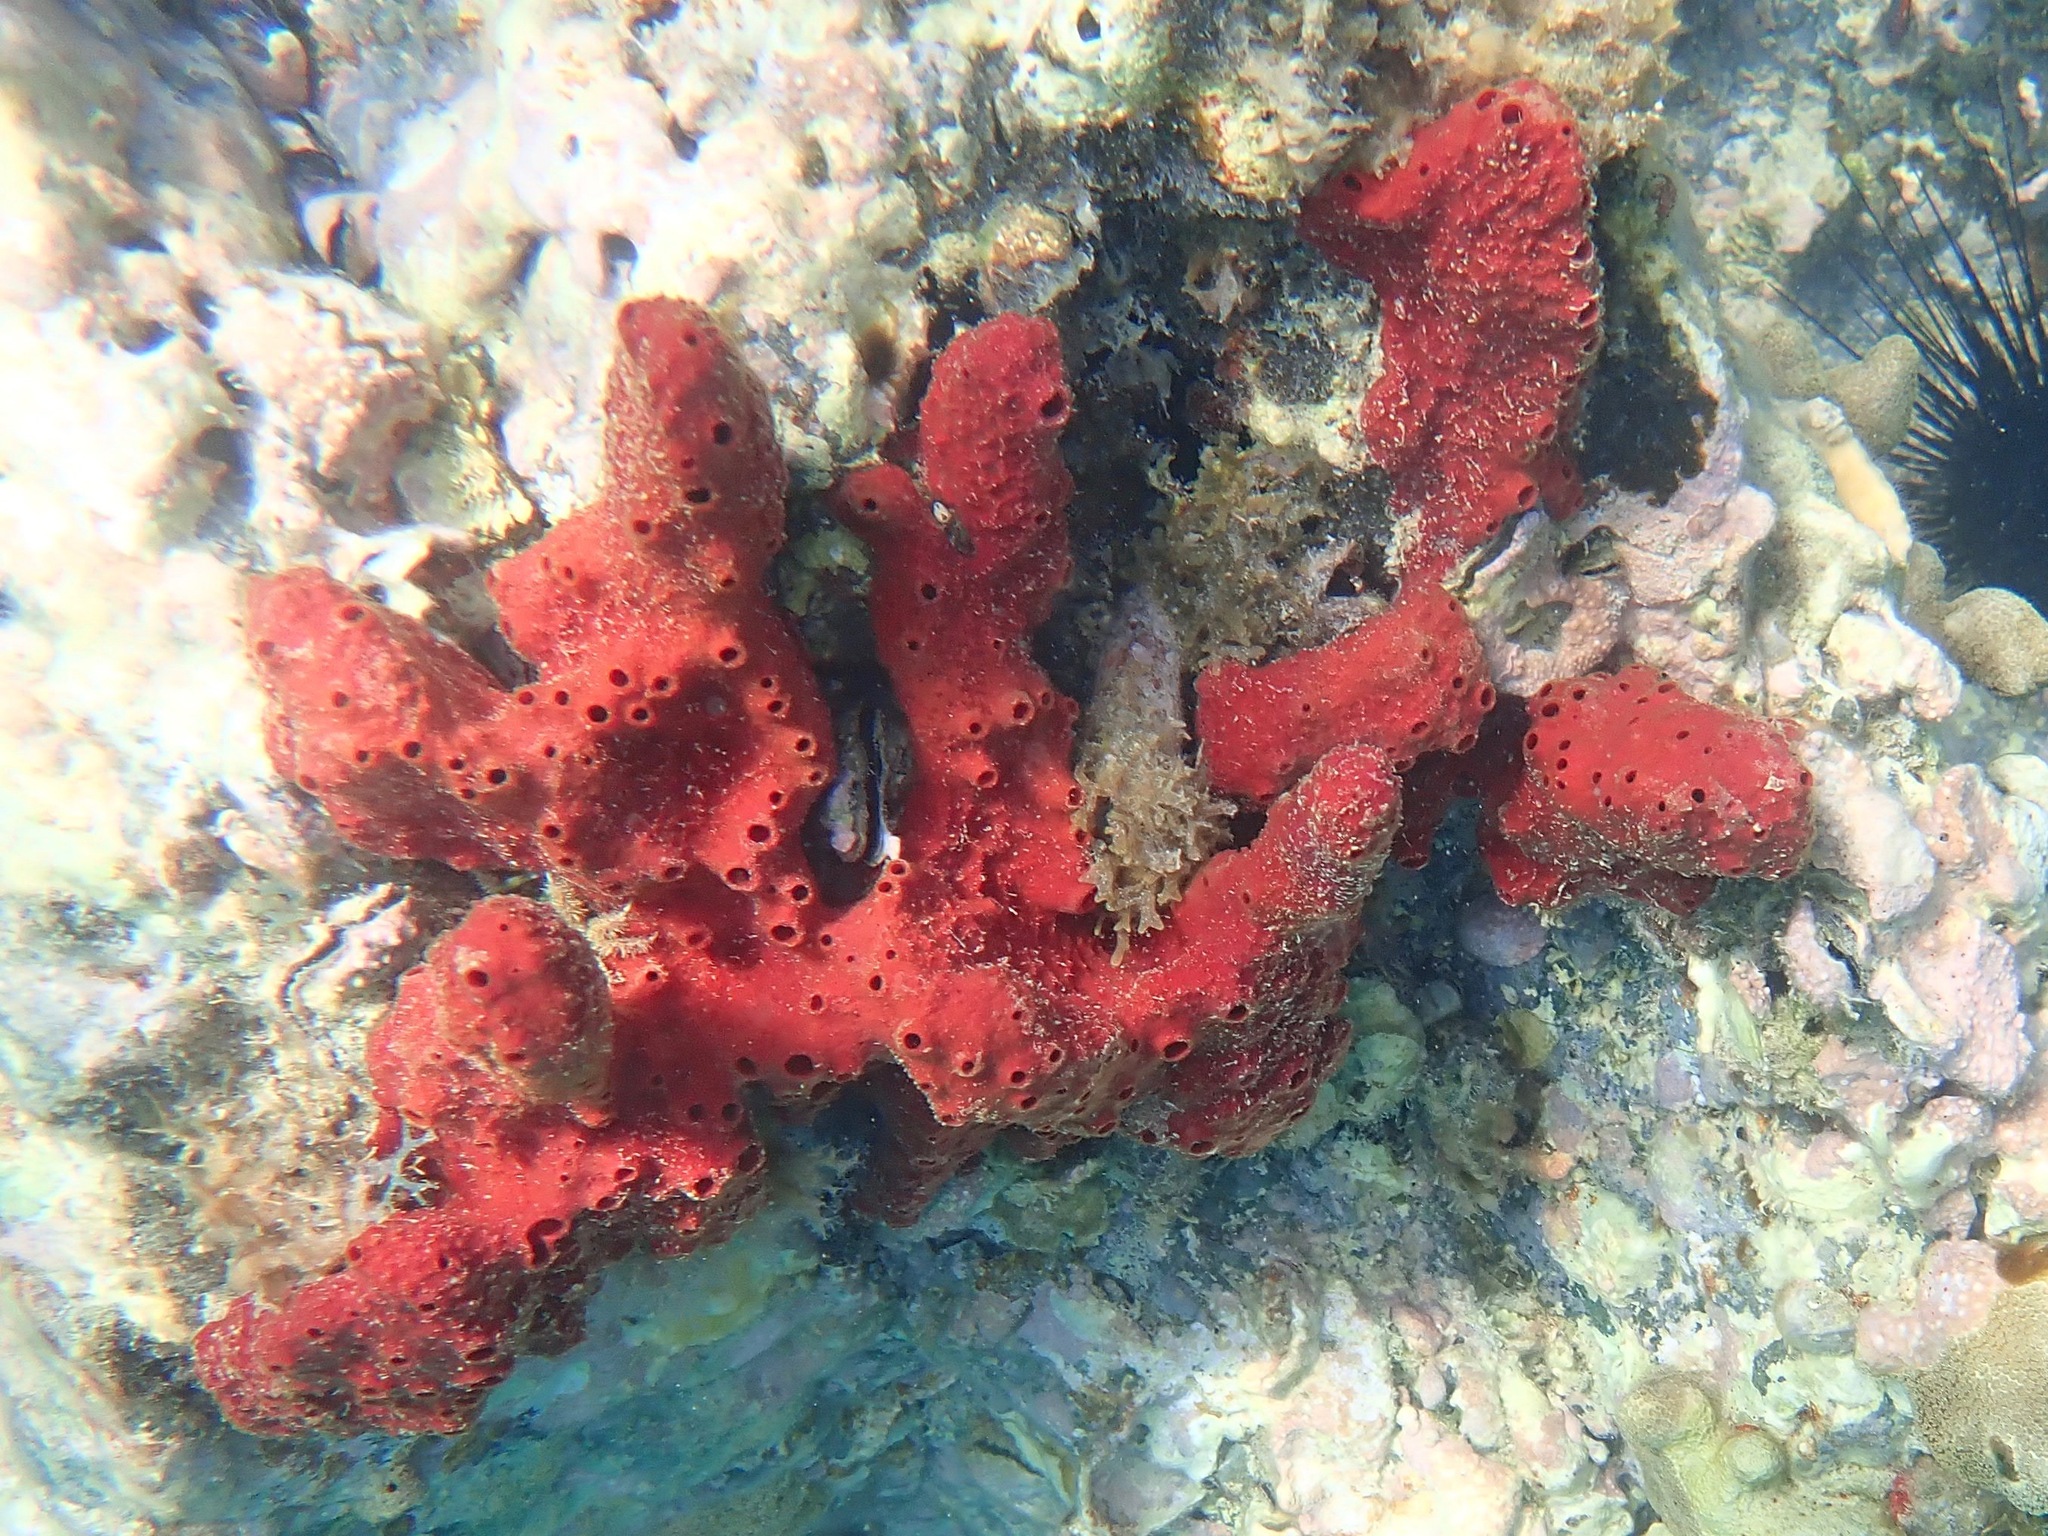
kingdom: Animalia
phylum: Porifera
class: Demospongiae
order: Haplosclerida
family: Niphatidae
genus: Amphimedon
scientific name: Amphimedon compressa
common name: Red sponge
